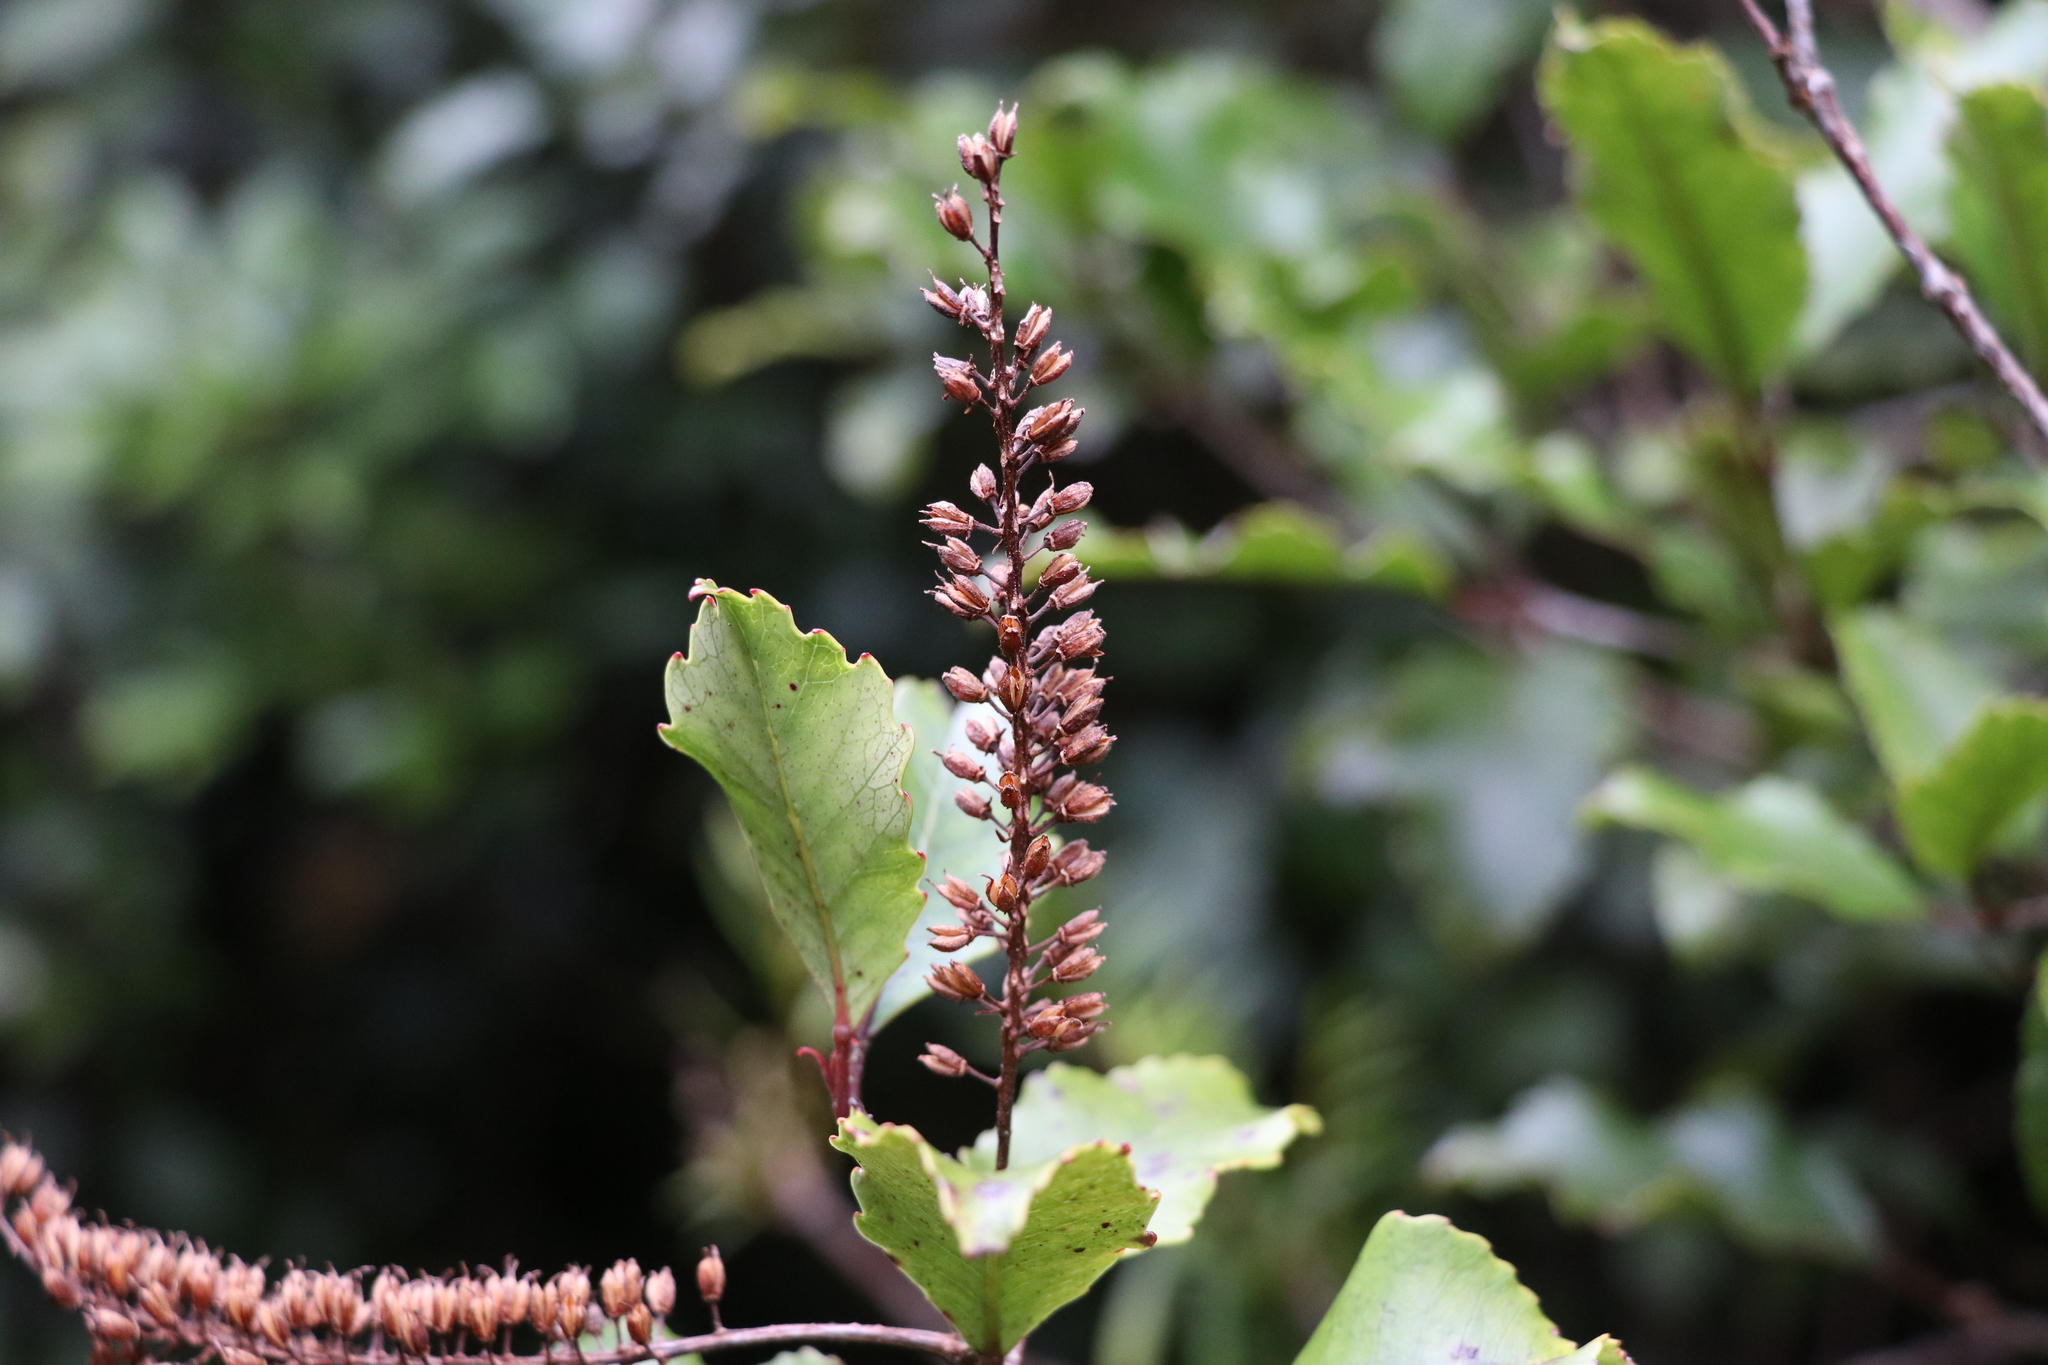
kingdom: Plantae
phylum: Tracheophyta
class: Magnoliopsida
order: Oxalidales
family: Cunoniaceae
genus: Pterophylla
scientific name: Pterophylla racemosa
